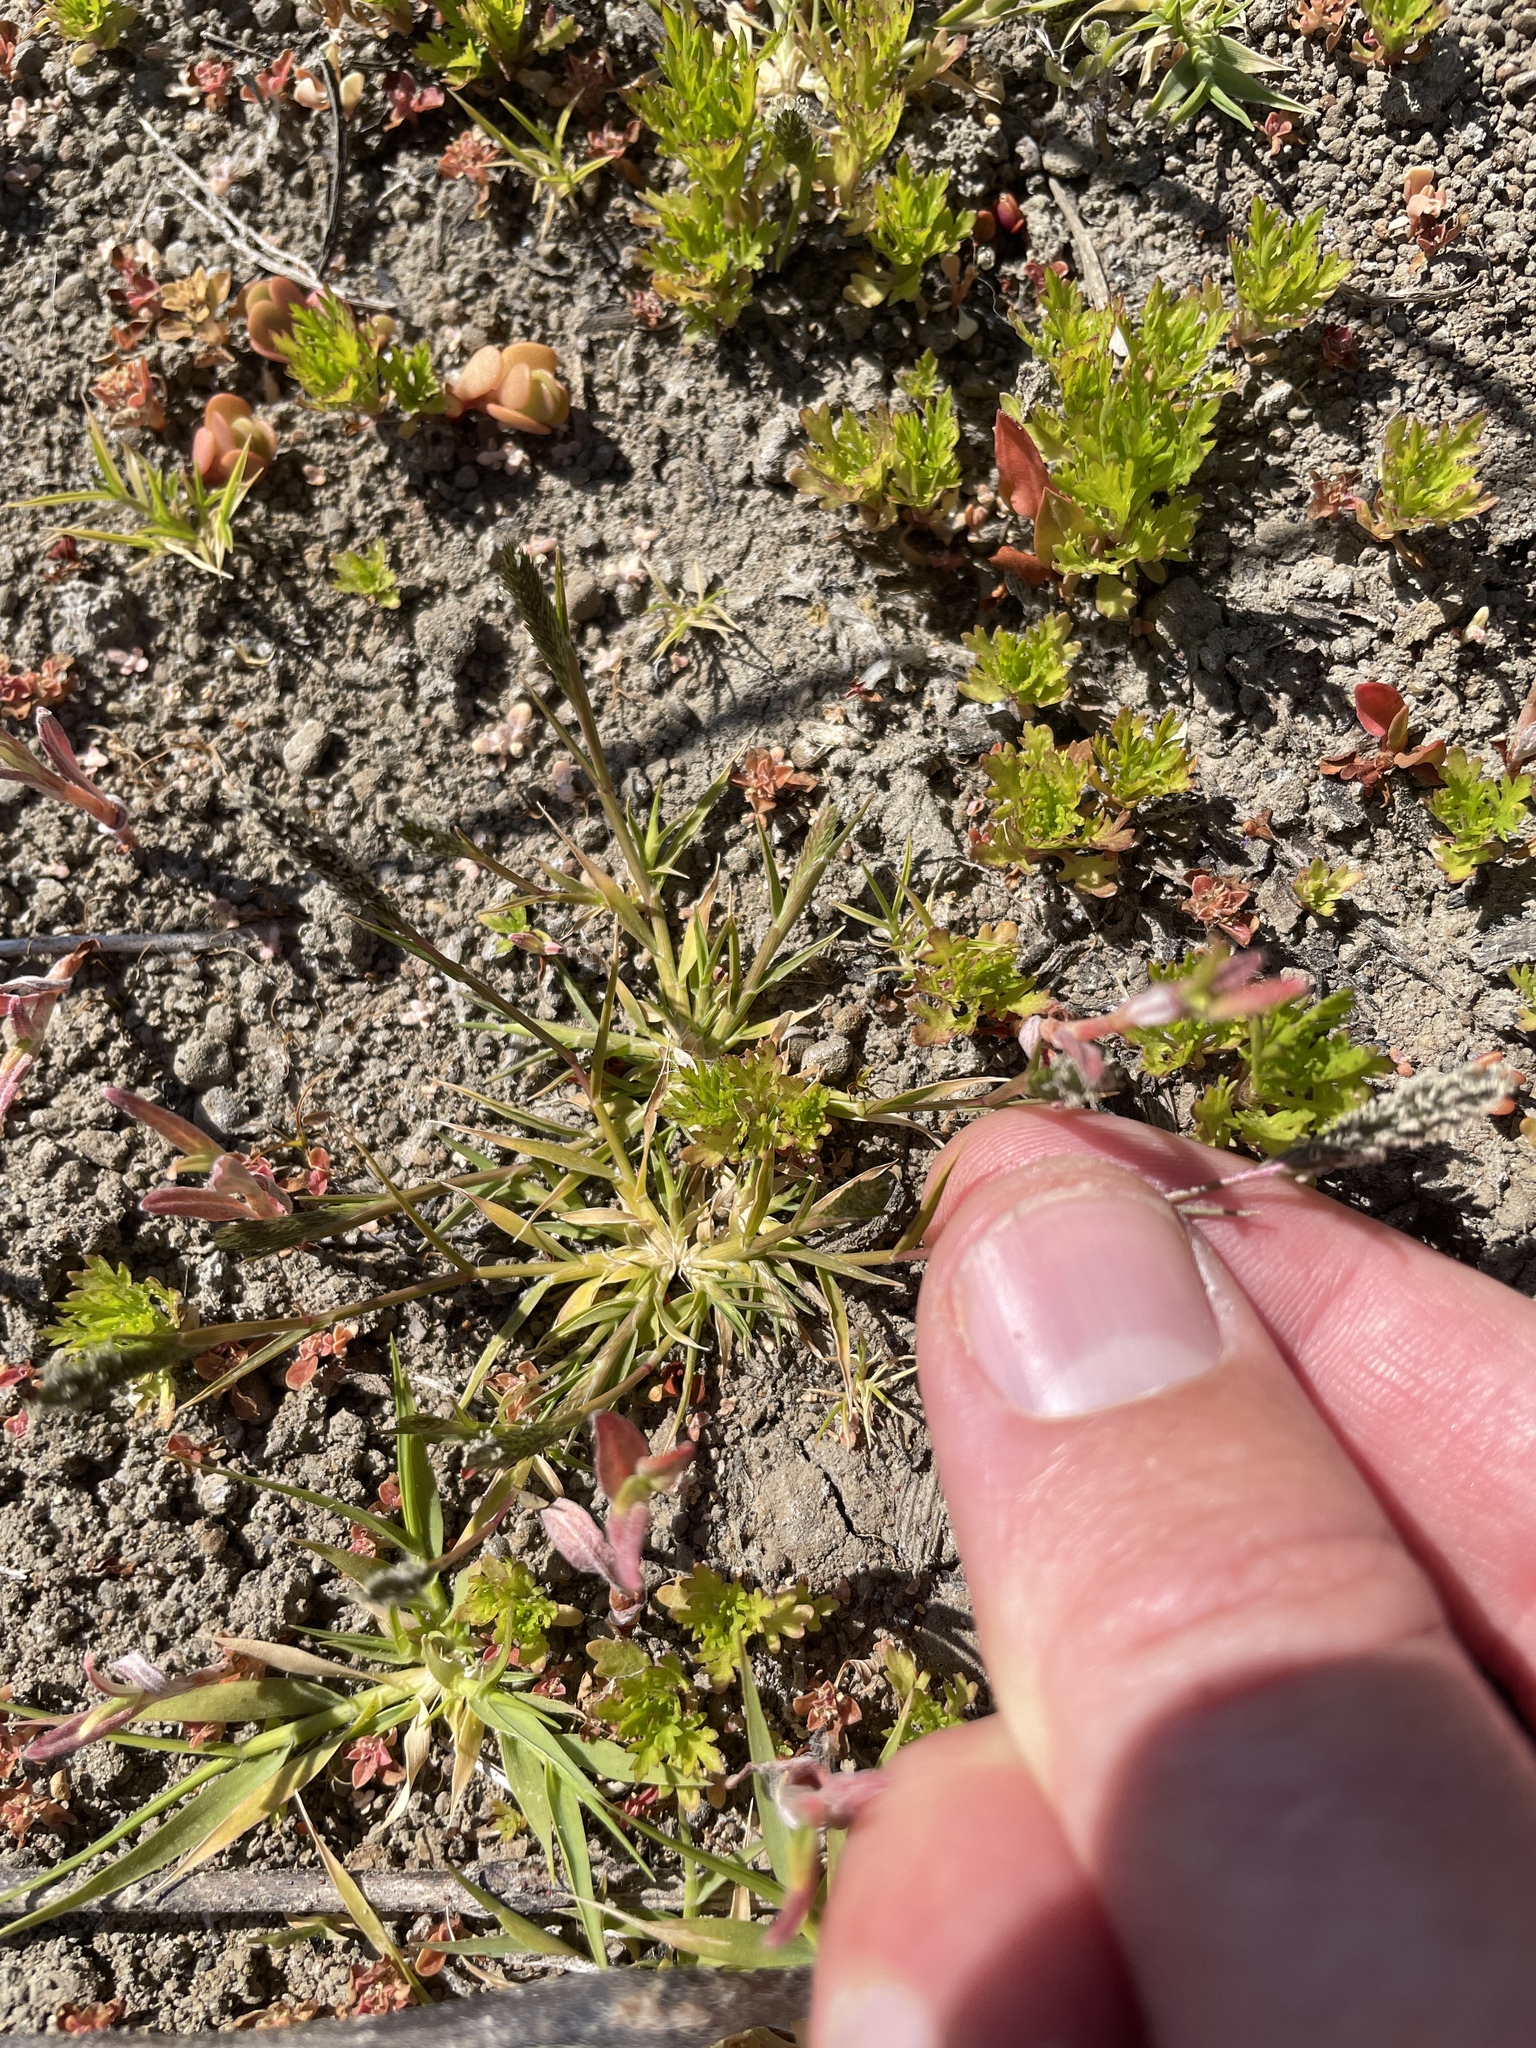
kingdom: Plantae
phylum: Tracheophyta
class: Liliopsida
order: Poales
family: Poaceae
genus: Sporobolus
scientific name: Sporobolus alopecuroides
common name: Foxtail pricklegrass
